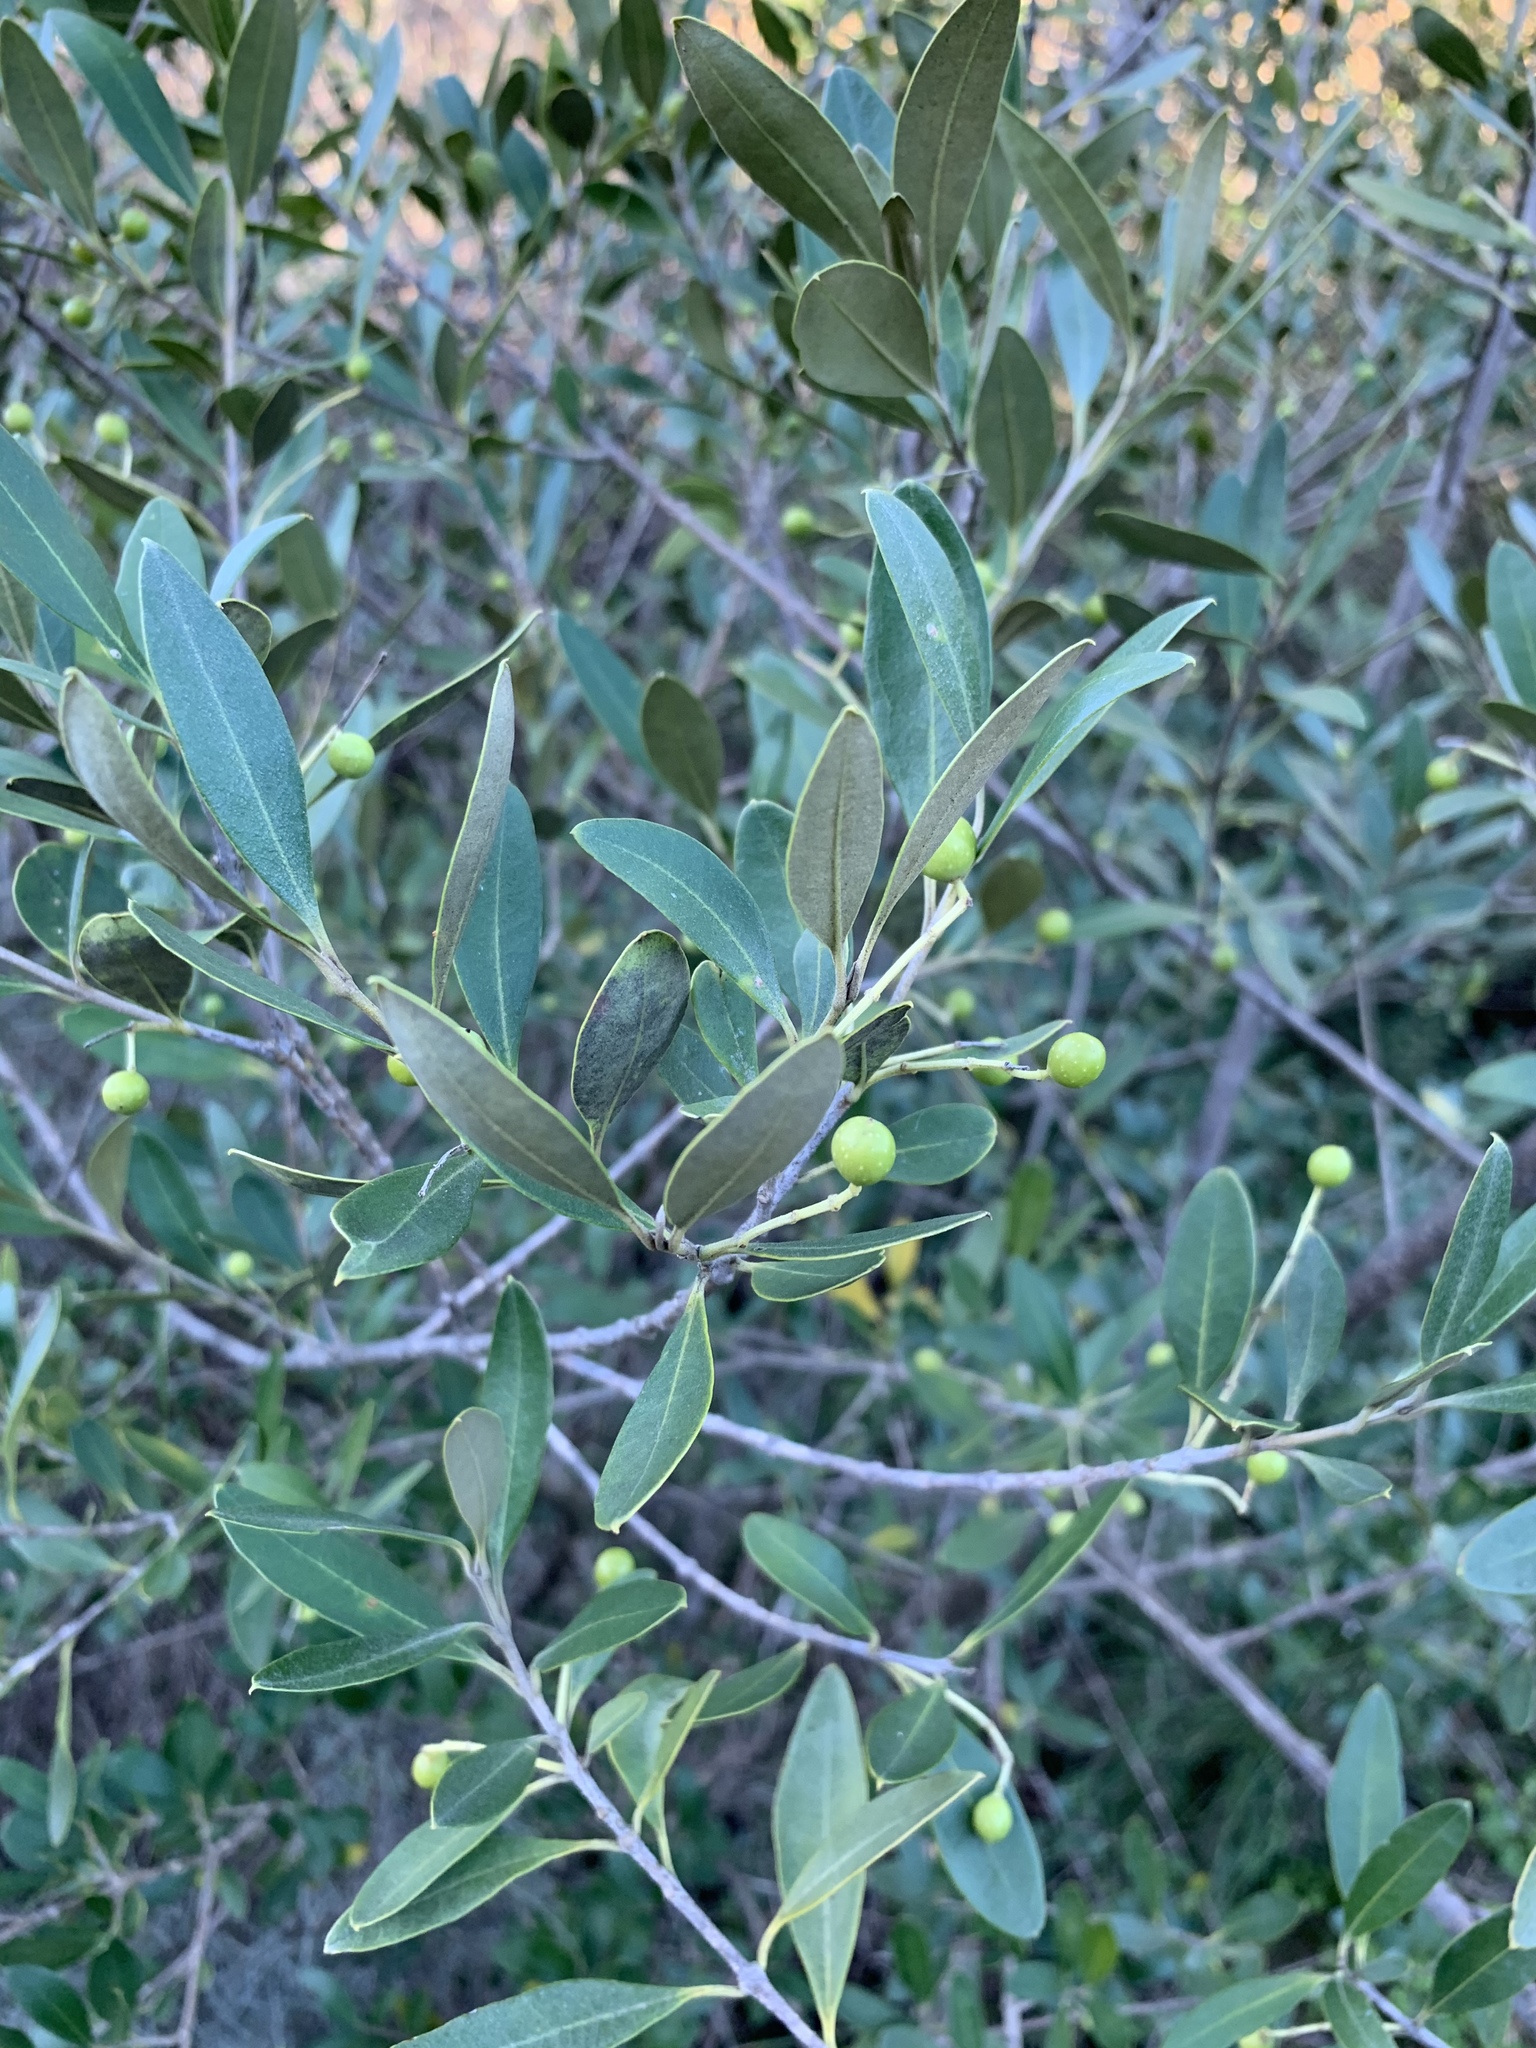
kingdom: Plantae
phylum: Tracheophyta
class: Magnoliopsida
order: Lamiales
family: Oleaceae
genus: Olea
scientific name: Olea europaea
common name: Olive
